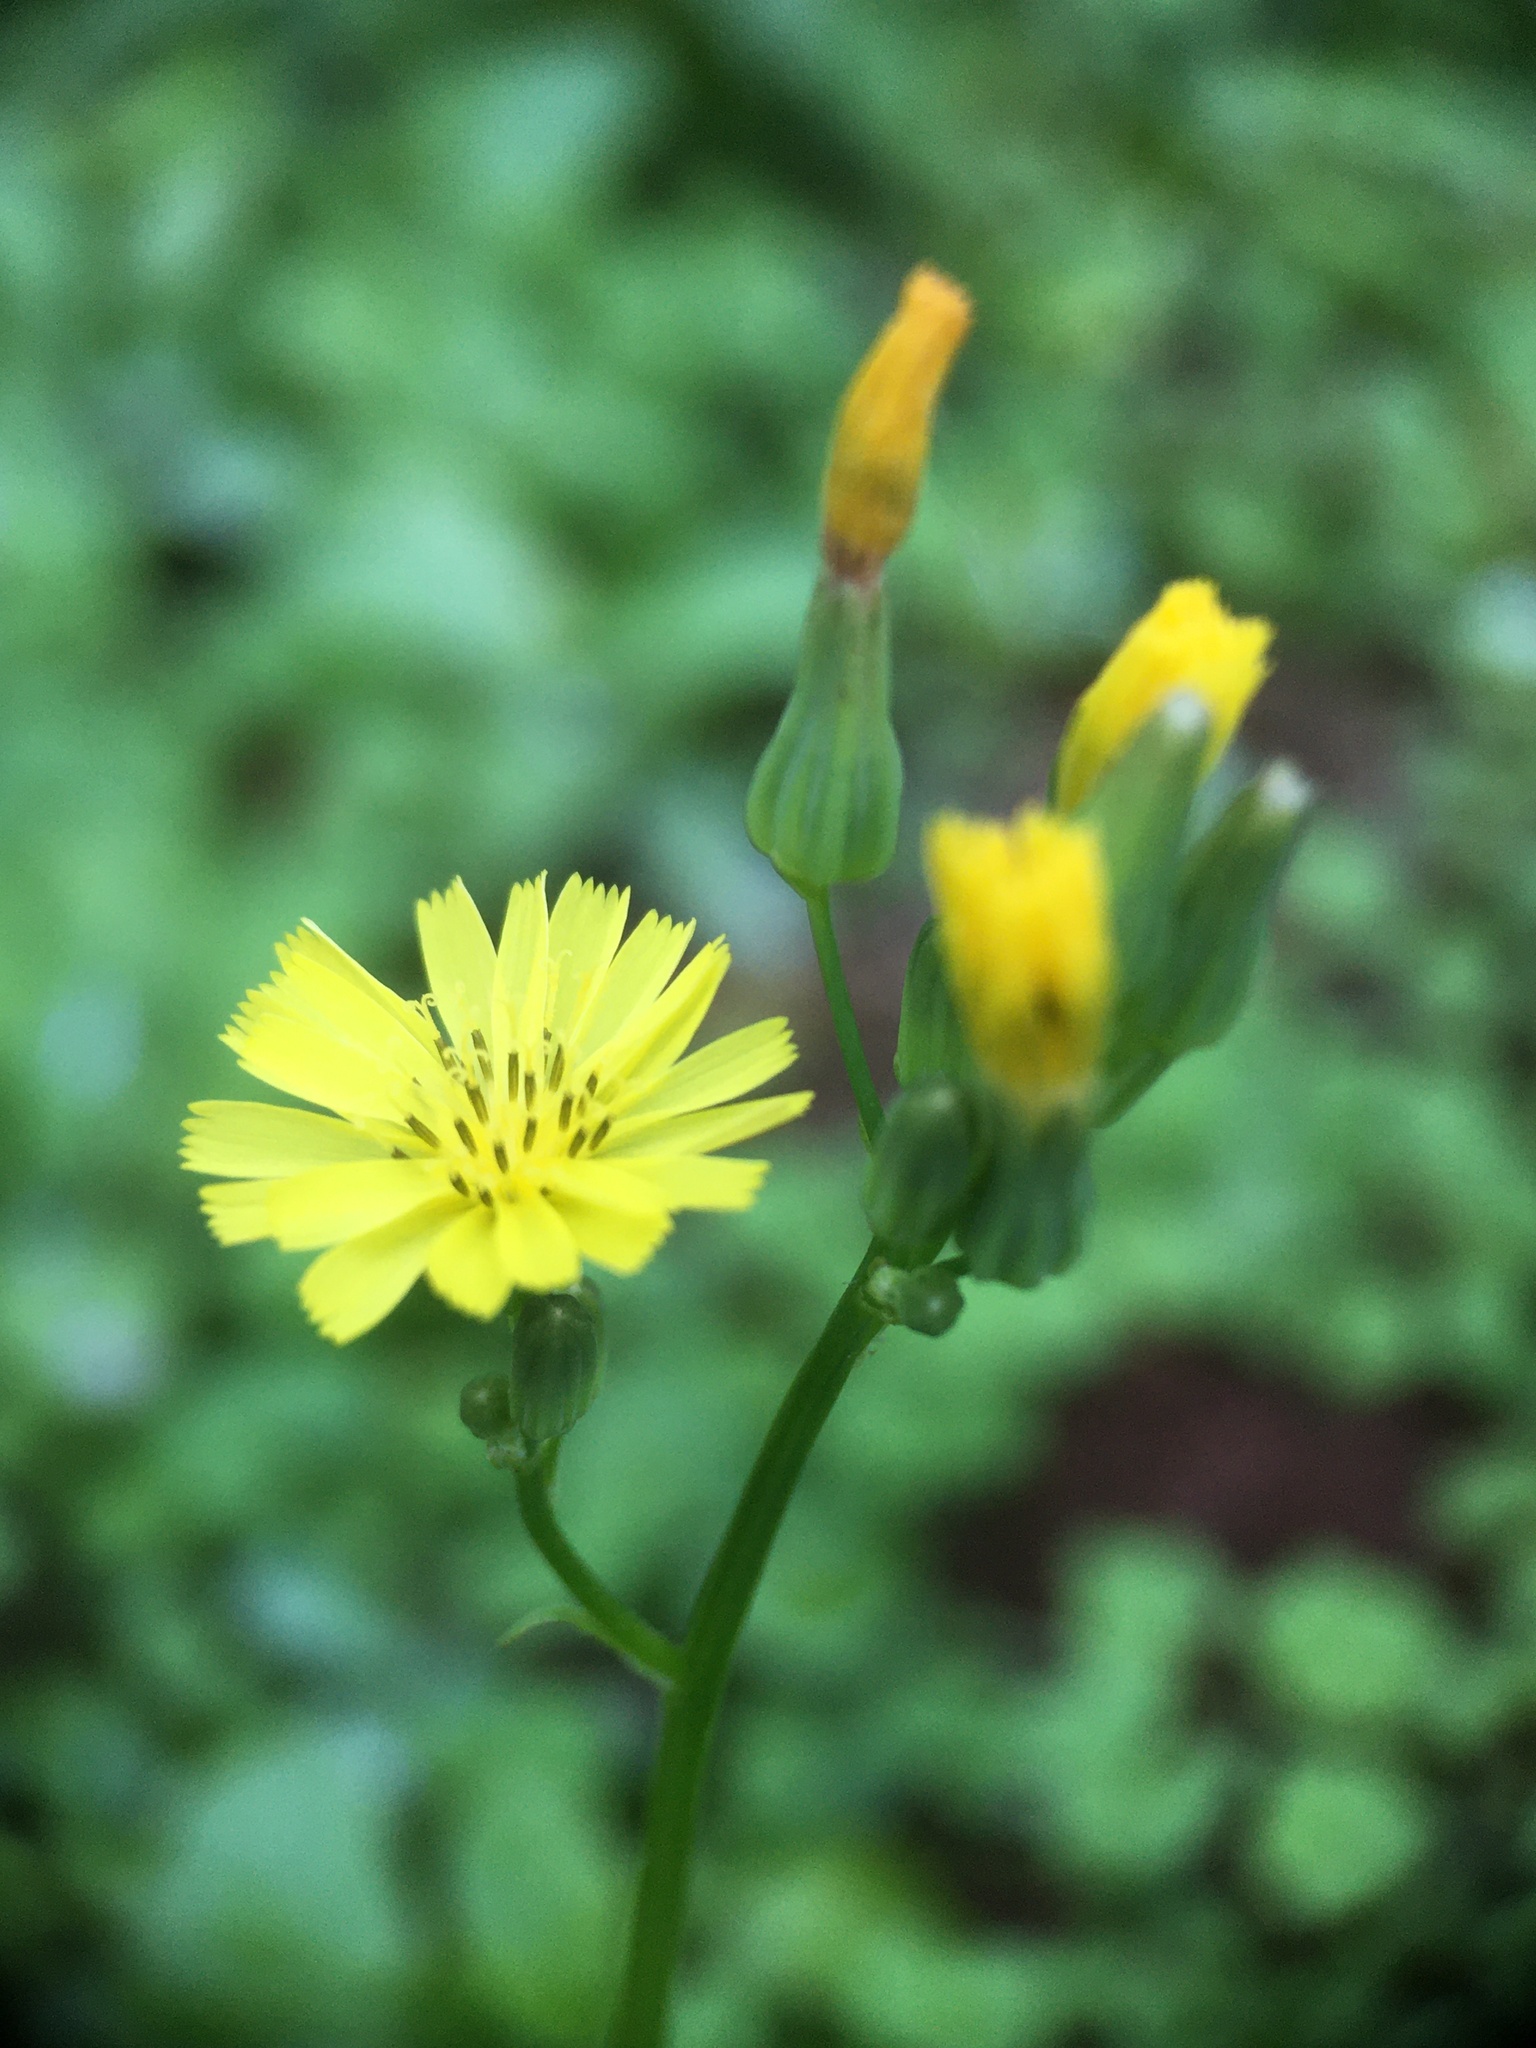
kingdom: Plantae
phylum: Tracheophyta
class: Magnoliopsida
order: Asterales
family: Asteraceae
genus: Youngia
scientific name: Youngia japonica
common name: Oriental false hawksbeard
